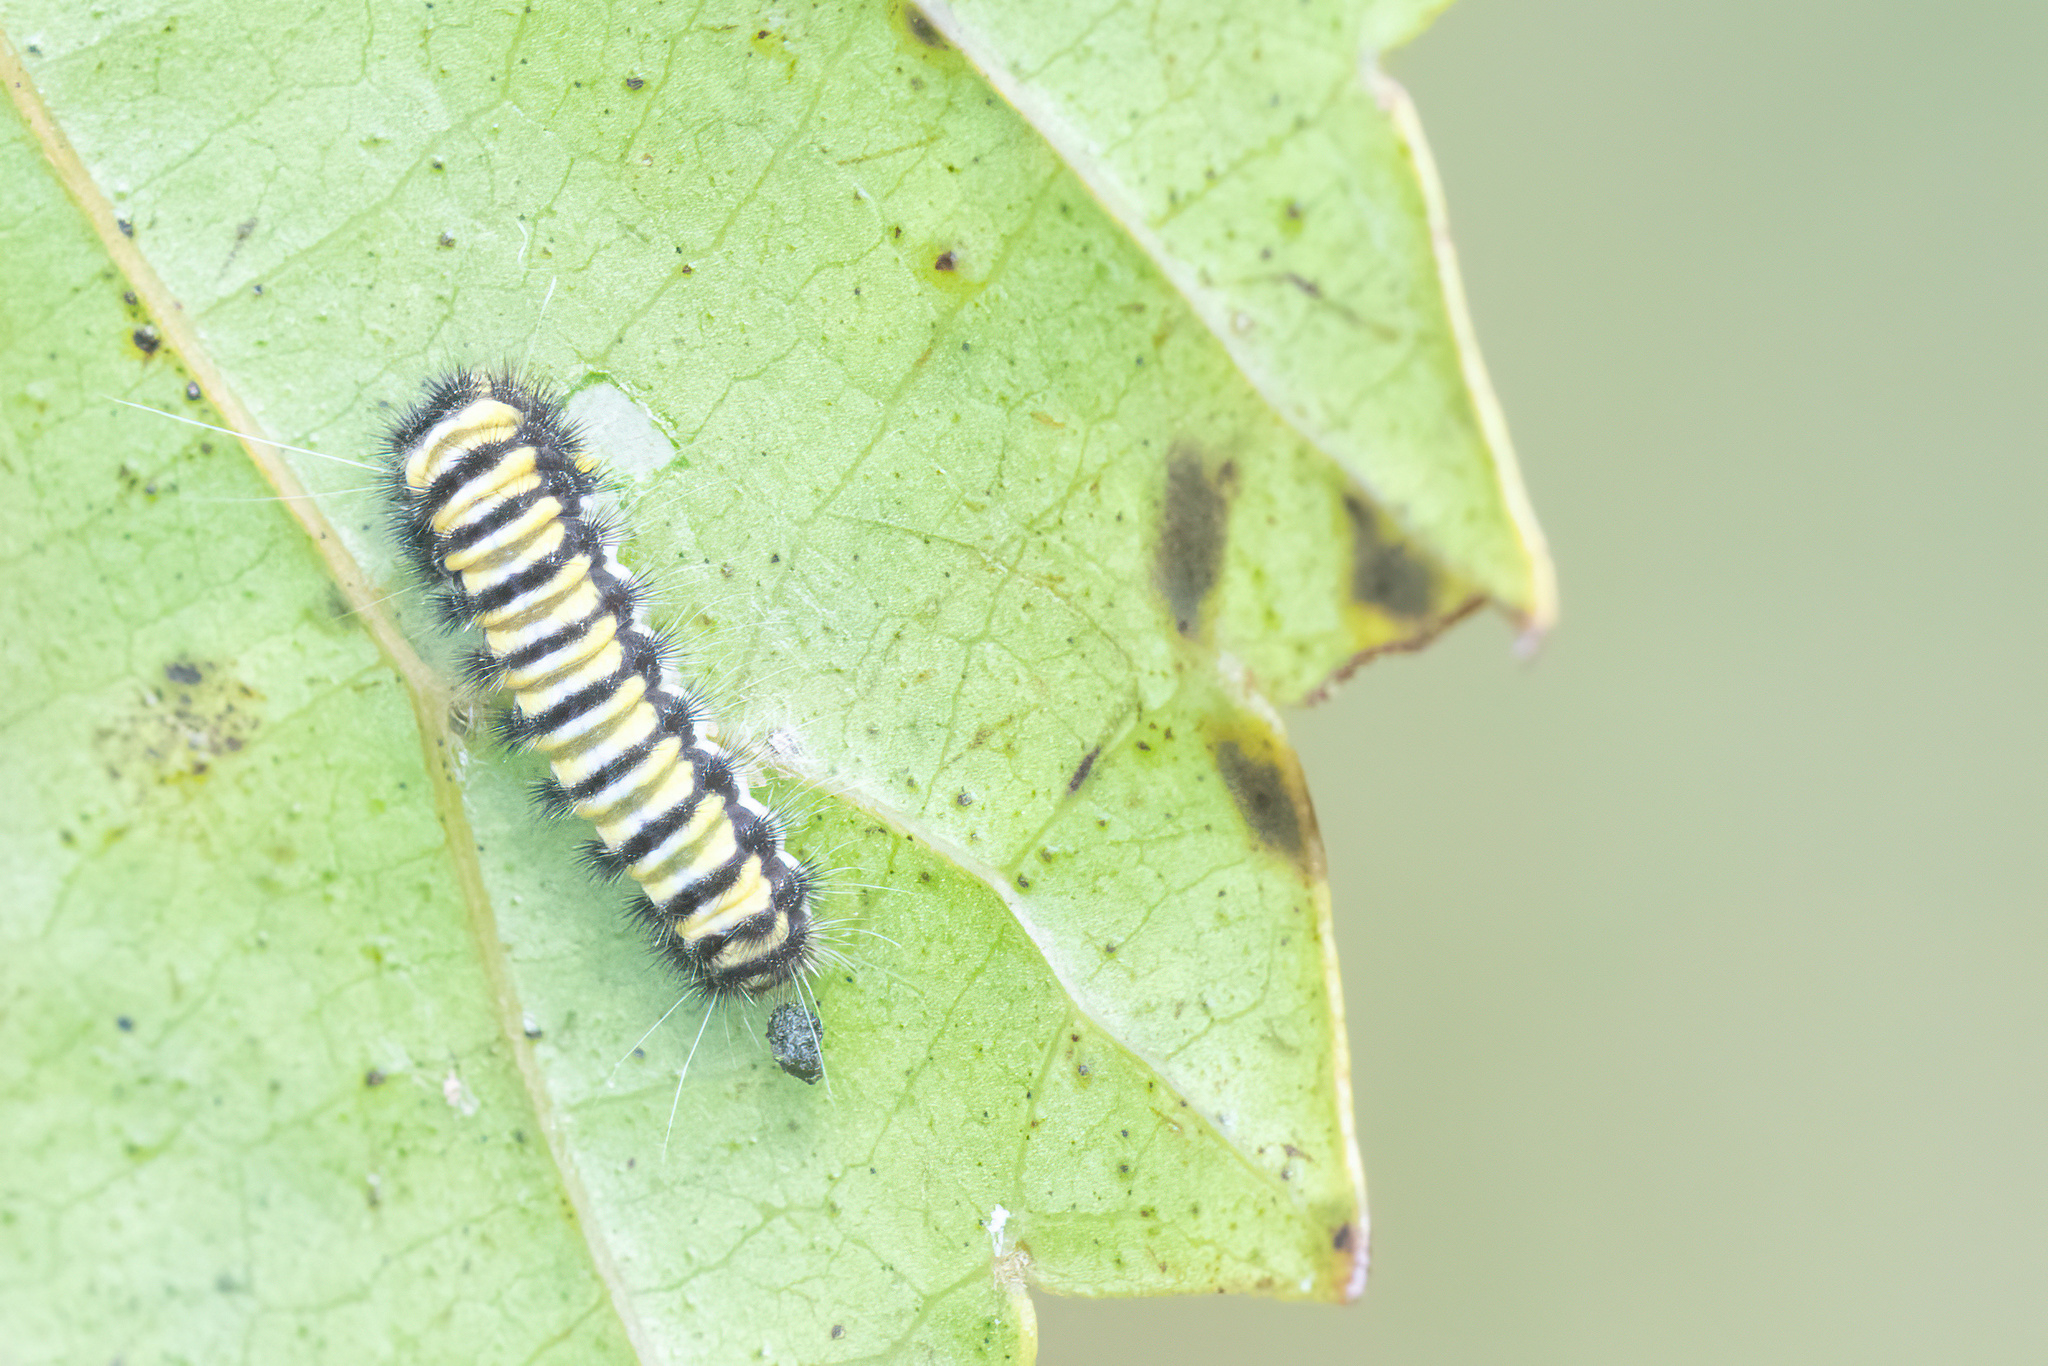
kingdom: Animalia
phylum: Arthropoda
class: Insecta
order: Lepidoptera
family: Zygaenidae
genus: Harrisina
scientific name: Harrisina americana
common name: Grapeleaf skeletonizer moth
